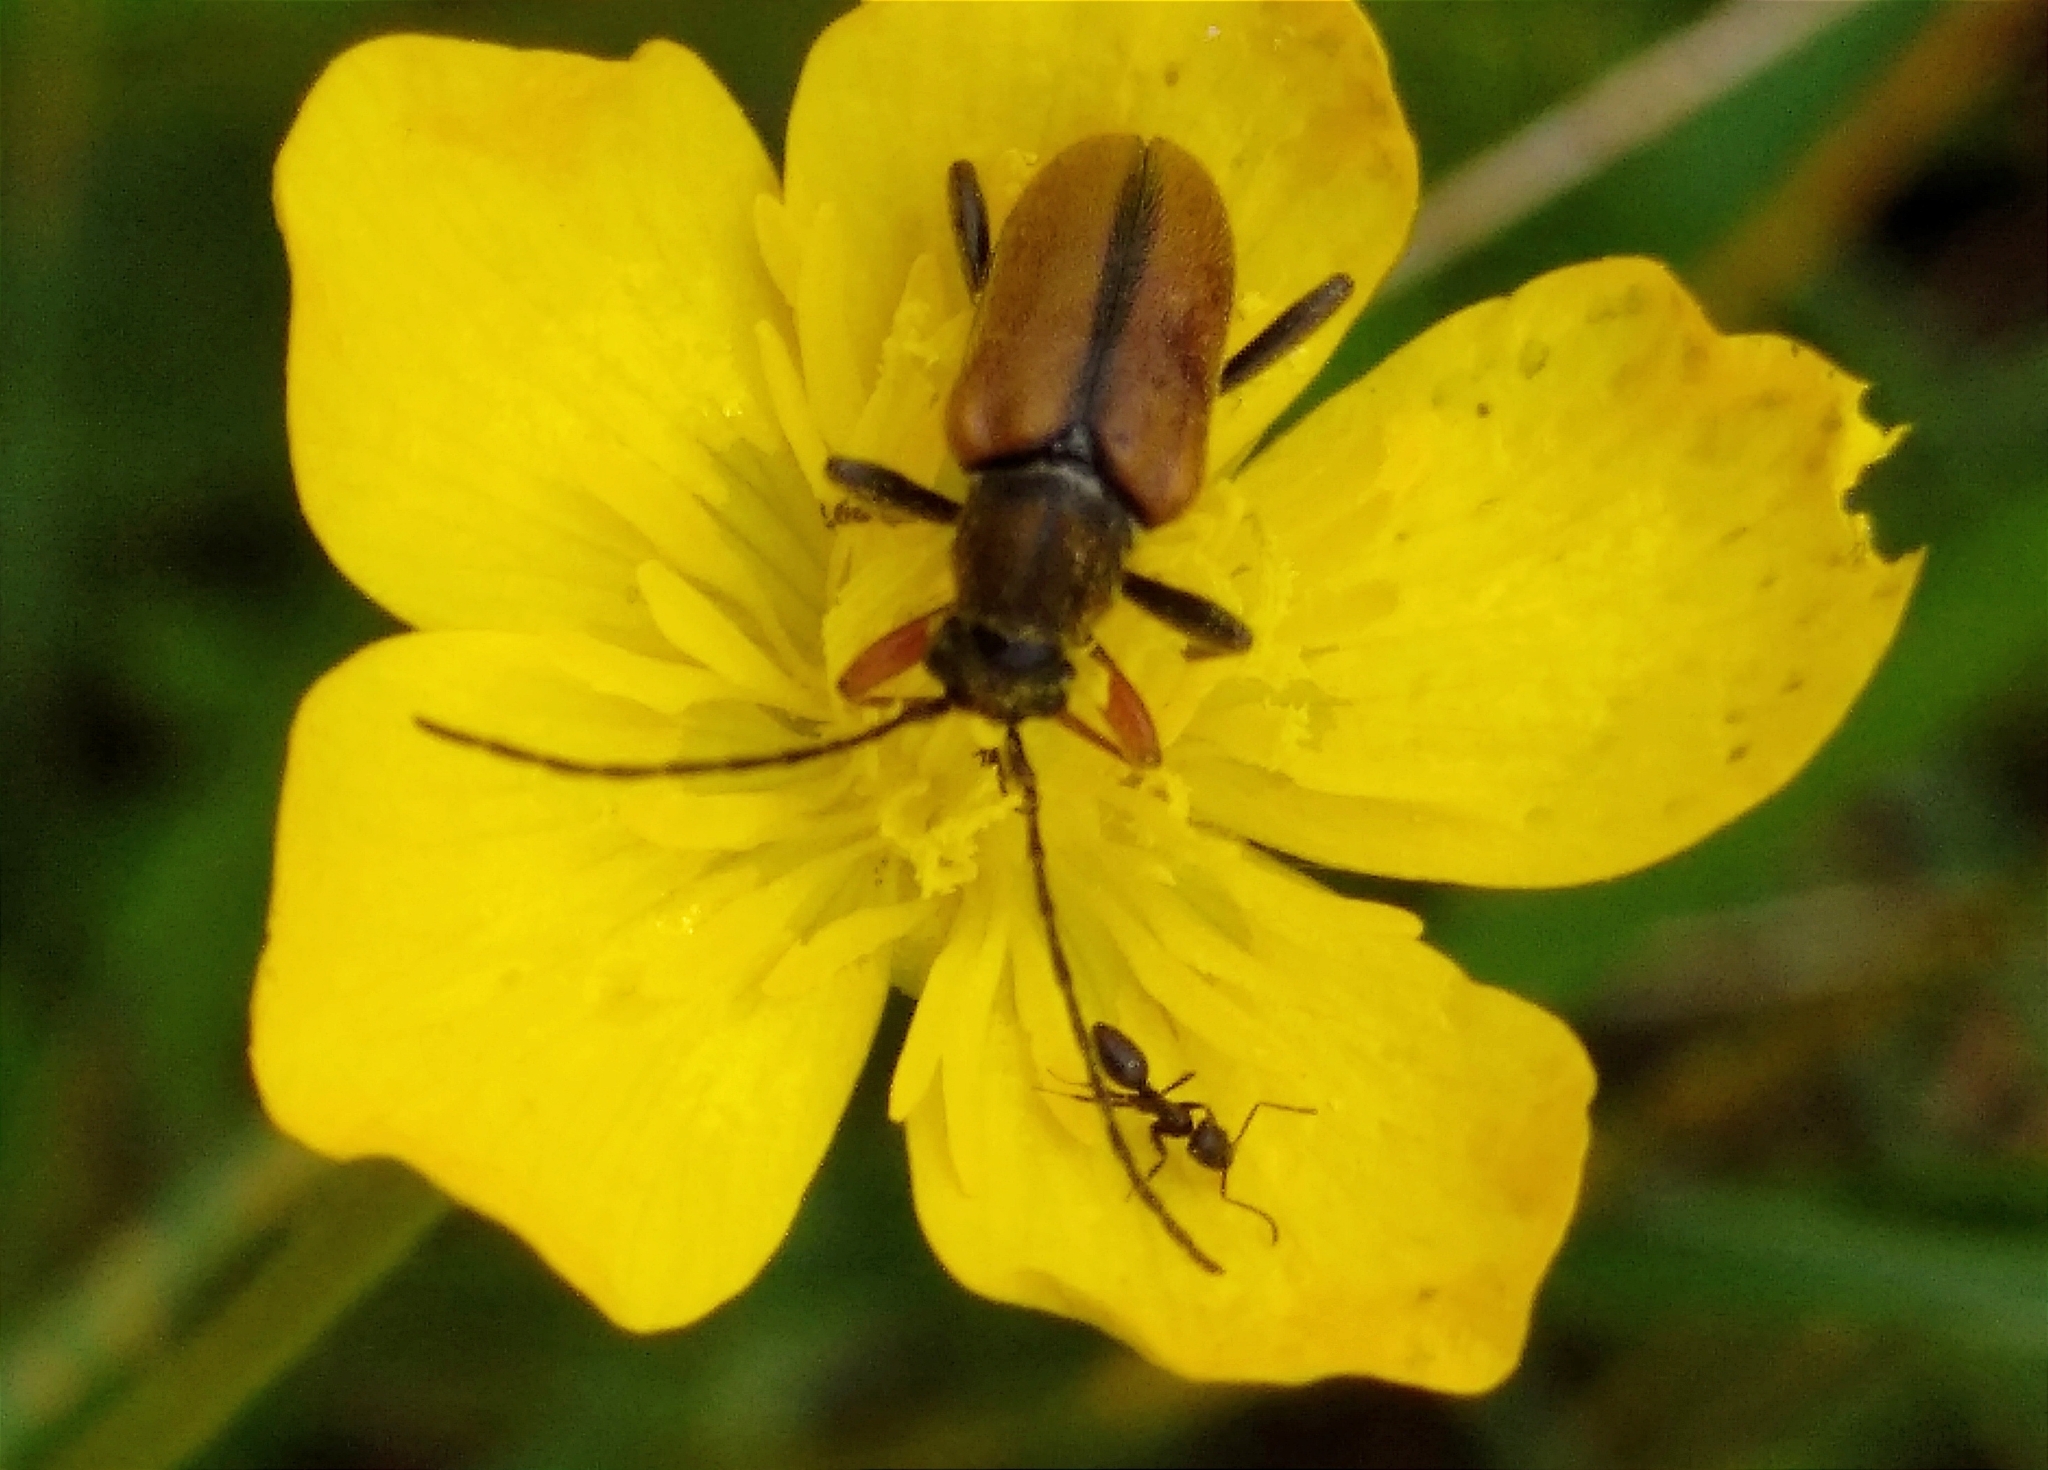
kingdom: Animalia
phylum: Arthropoda
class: Insecta
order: Coleoptera
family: Cerambycidae
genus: Cortodera
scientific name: Cortodera flavimana
